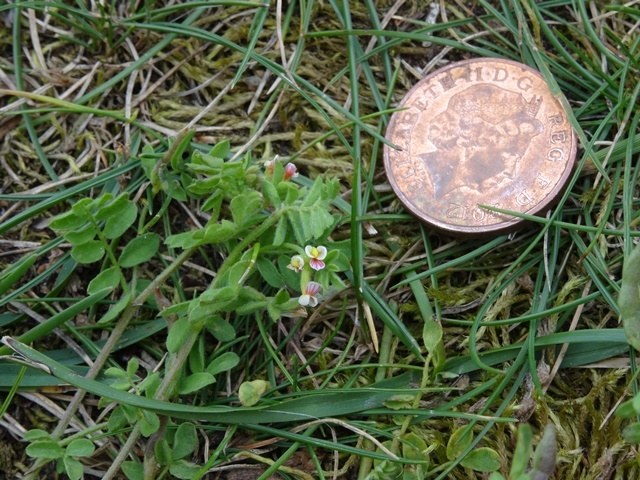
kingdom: Plantae
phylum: Tracheophyta
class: Magnoliopsida
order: Fabales
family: Fabaceae
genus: Ornithopus
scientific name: Ornithopus perpusillus
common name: Bird's-foot
